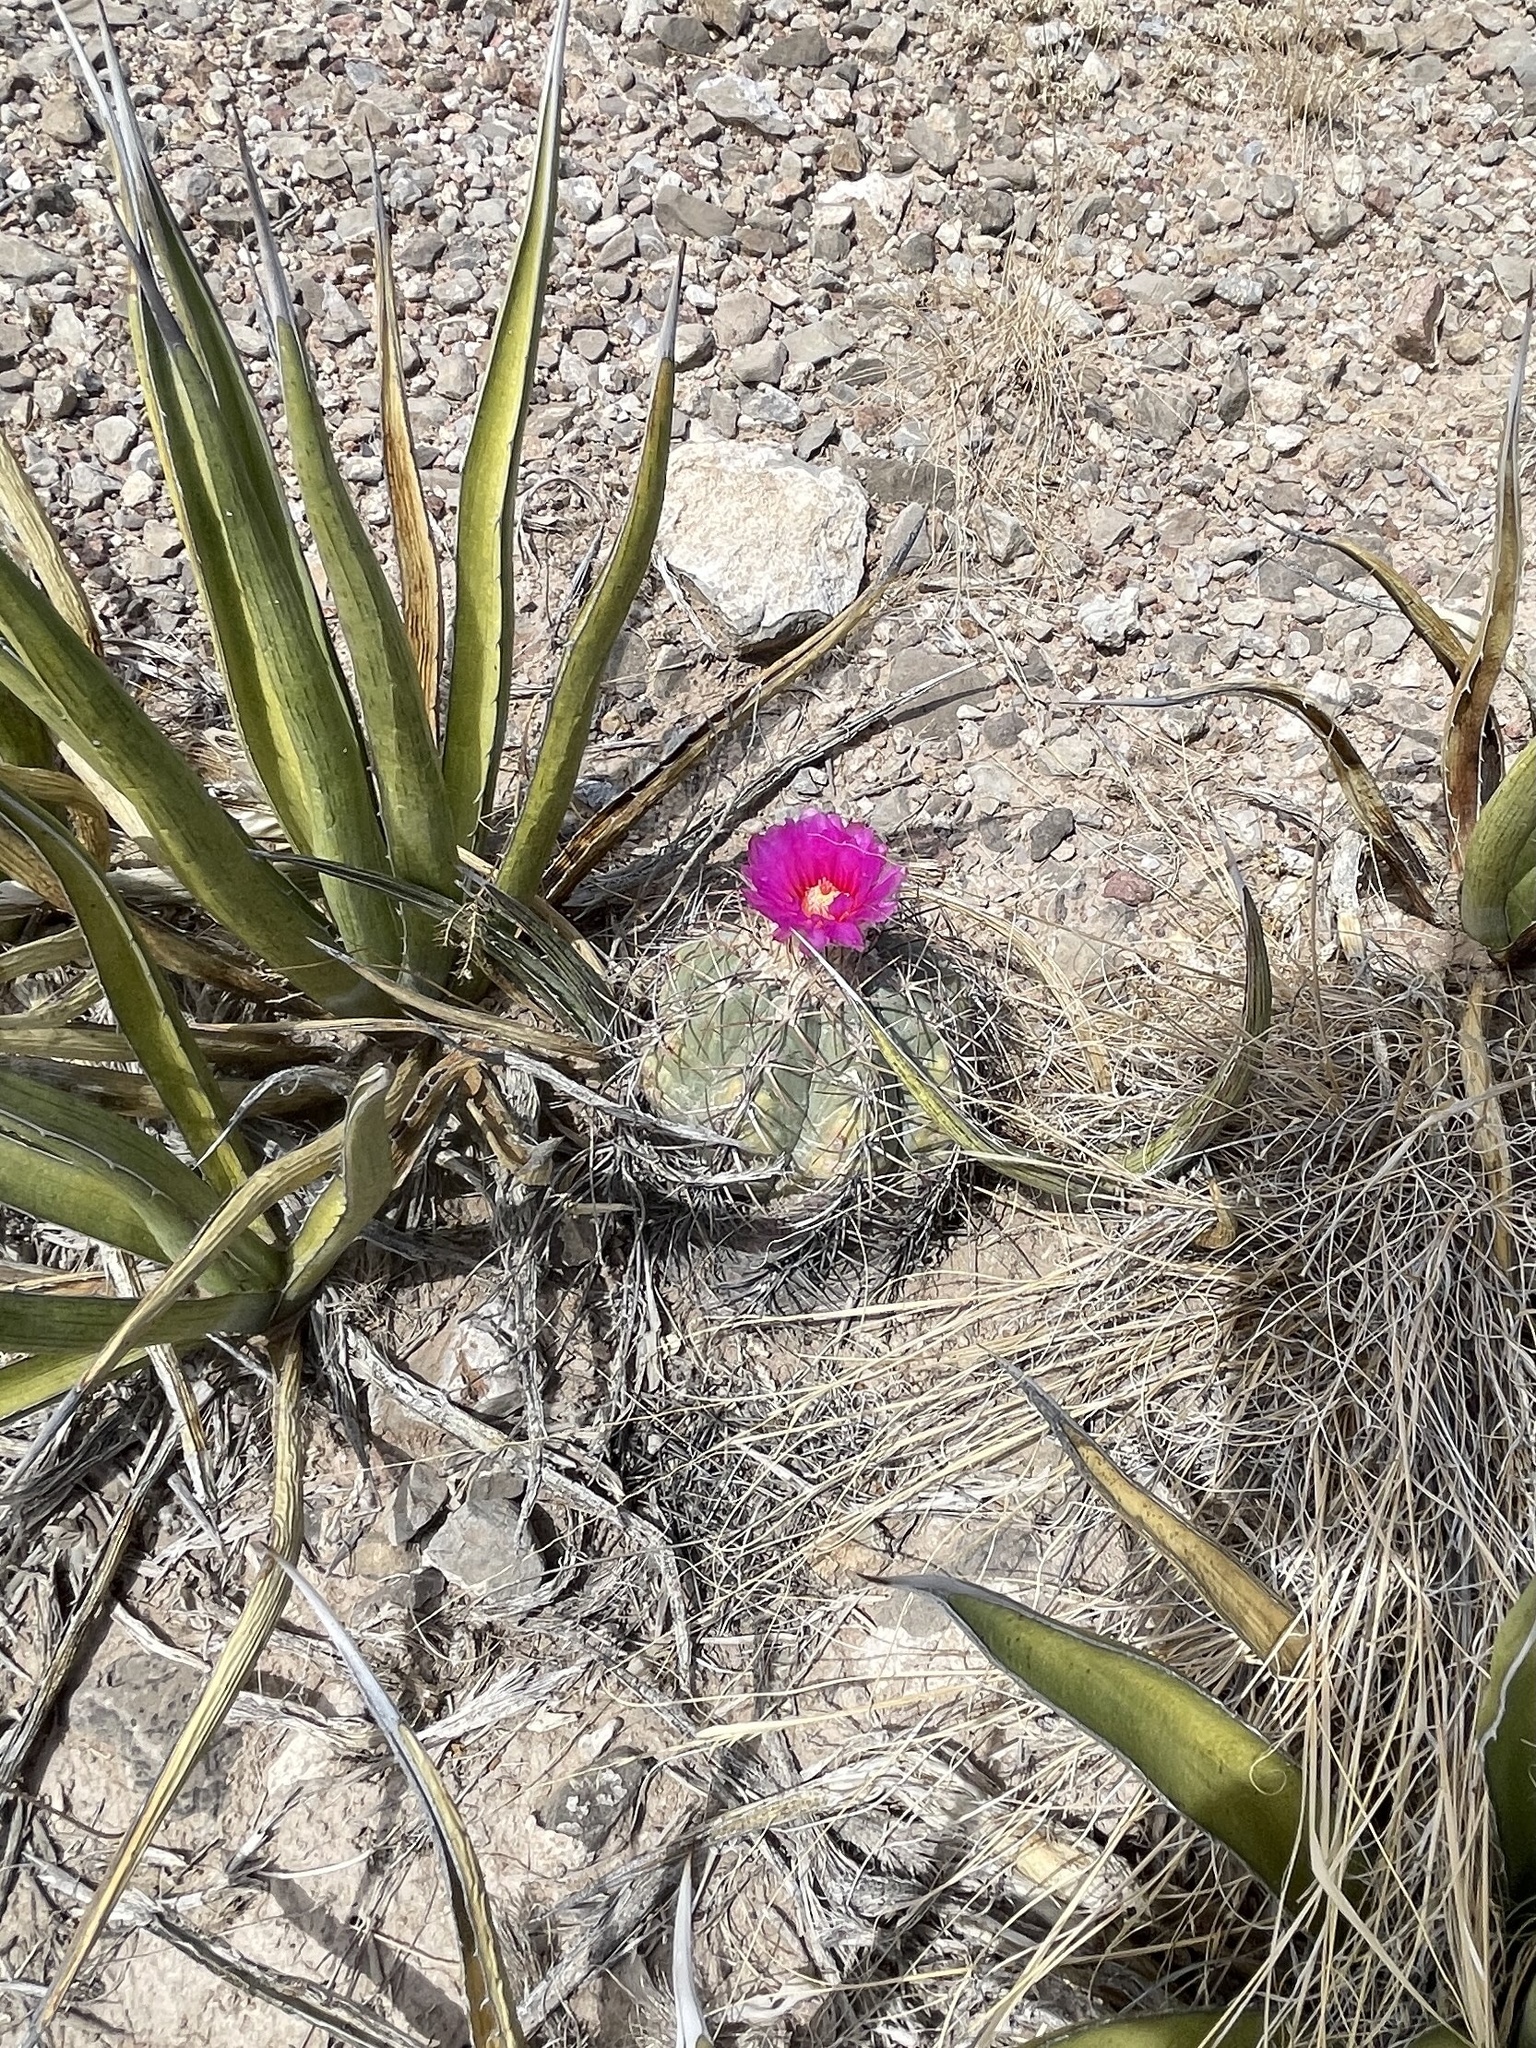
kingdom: Plantae
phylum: Tracheophyta
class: Magnoliopsida
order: Caryophyllales
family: Cactaceae
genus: Echinocactus
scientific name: Echinocactus horizonthalonius
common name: Devilshead
